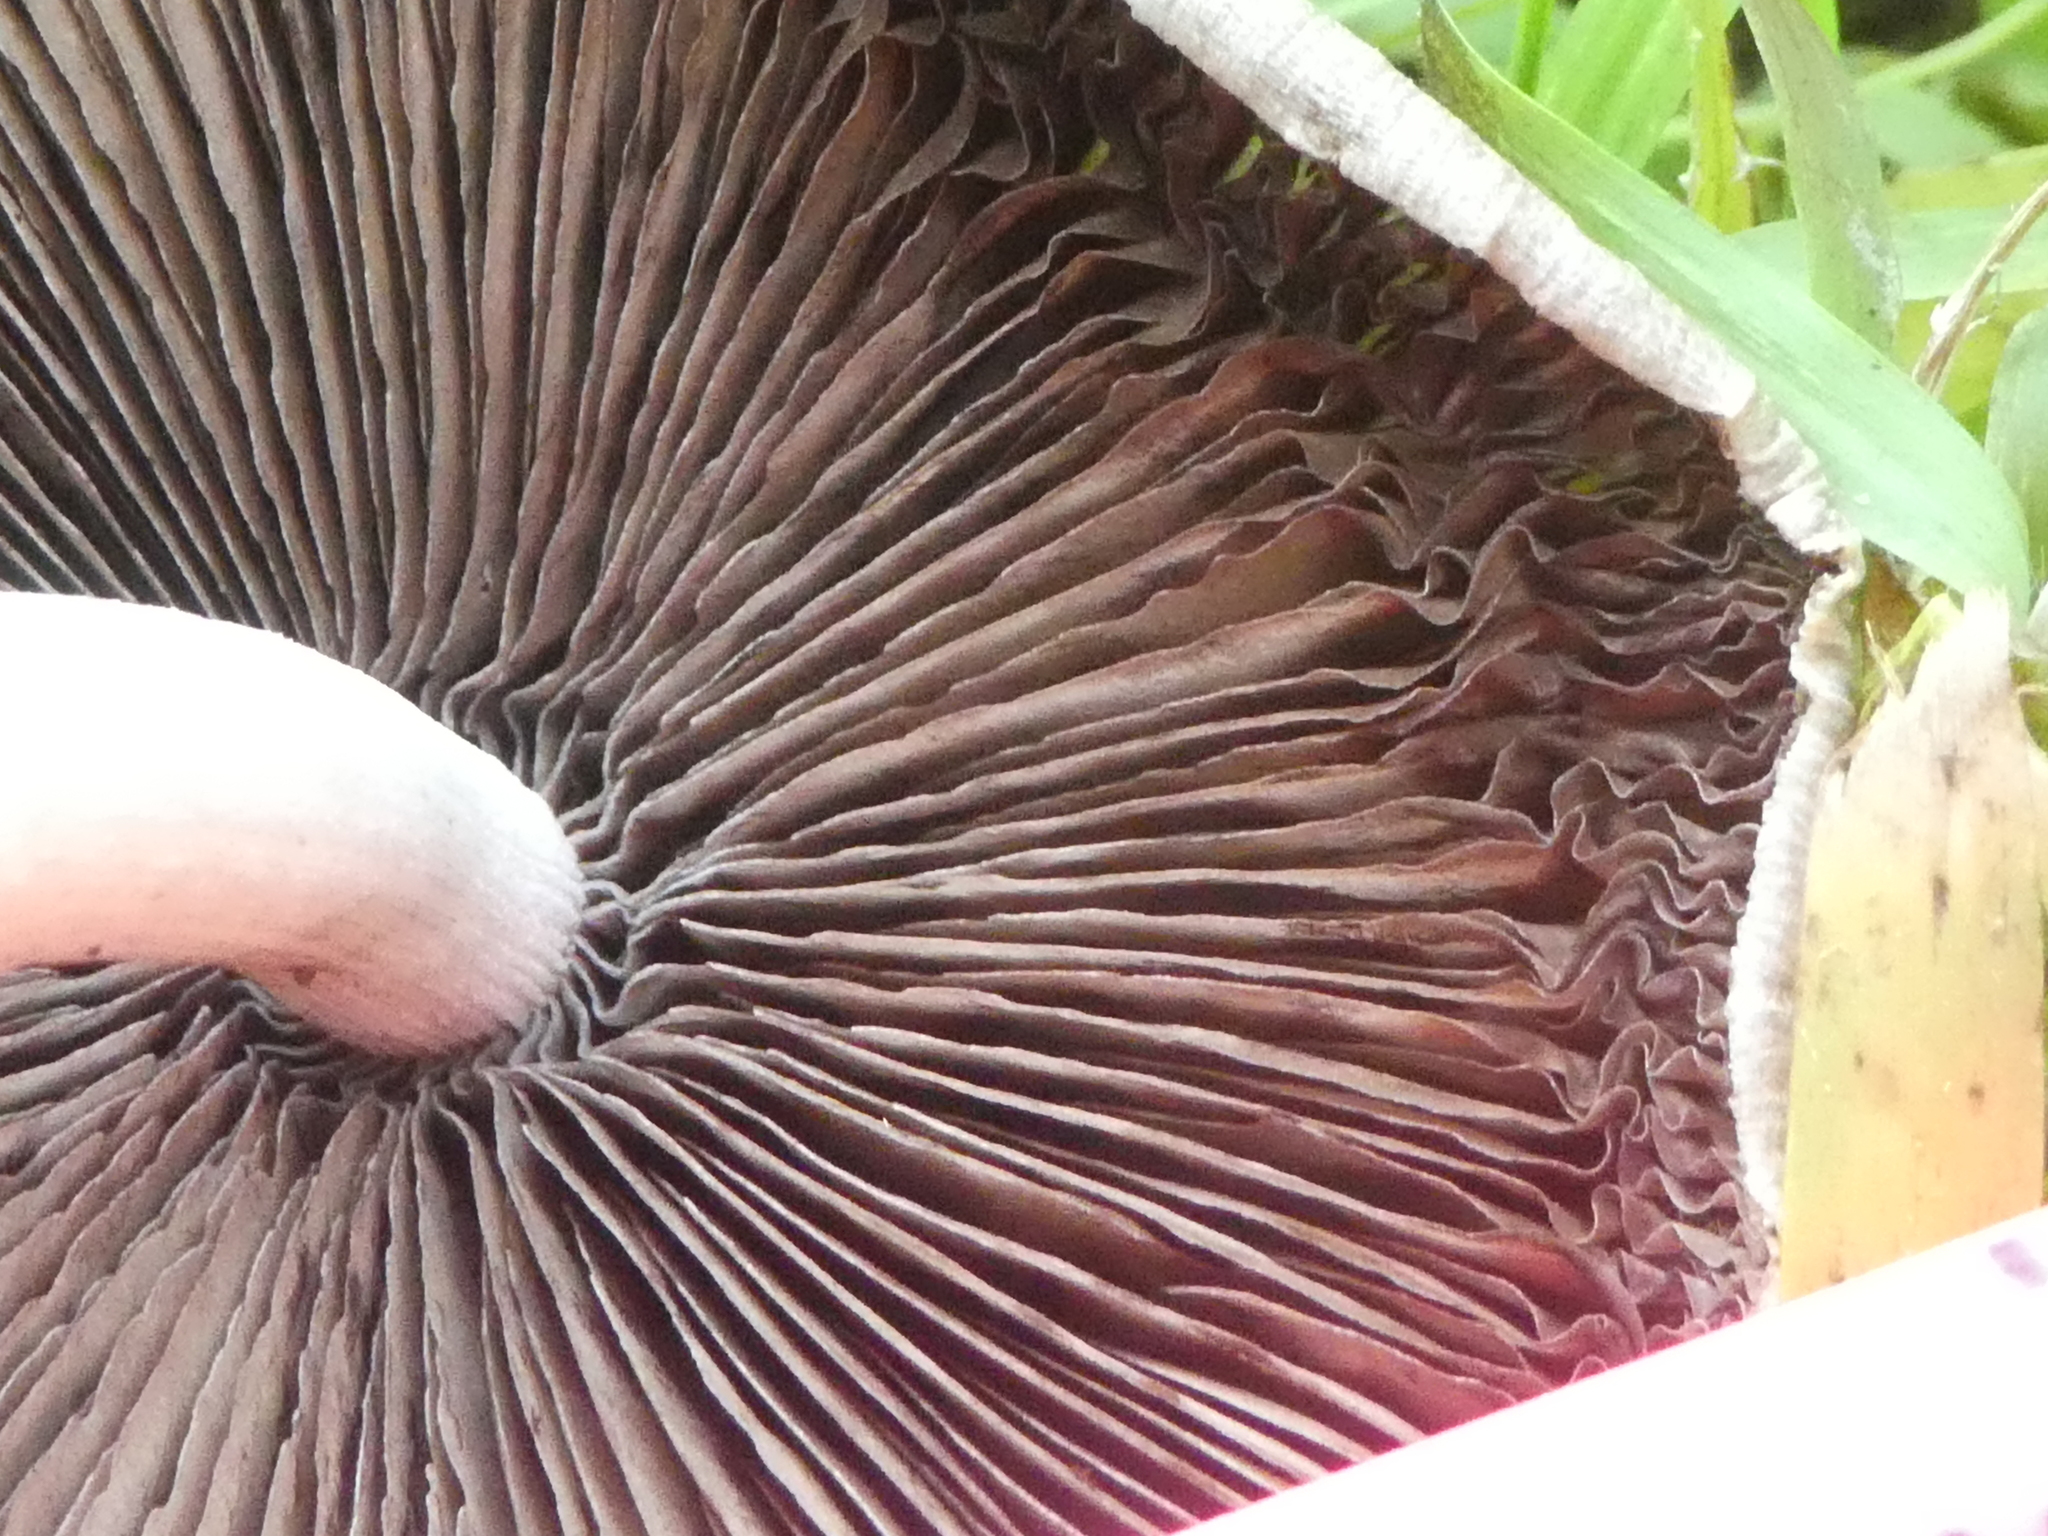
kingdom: Fungi
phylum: Basidiomycota
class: Agaricomycetes
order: Agaricales
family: Psathyrellaceae
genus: Candolleomyces
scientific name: Candolleomyces candolleanus
